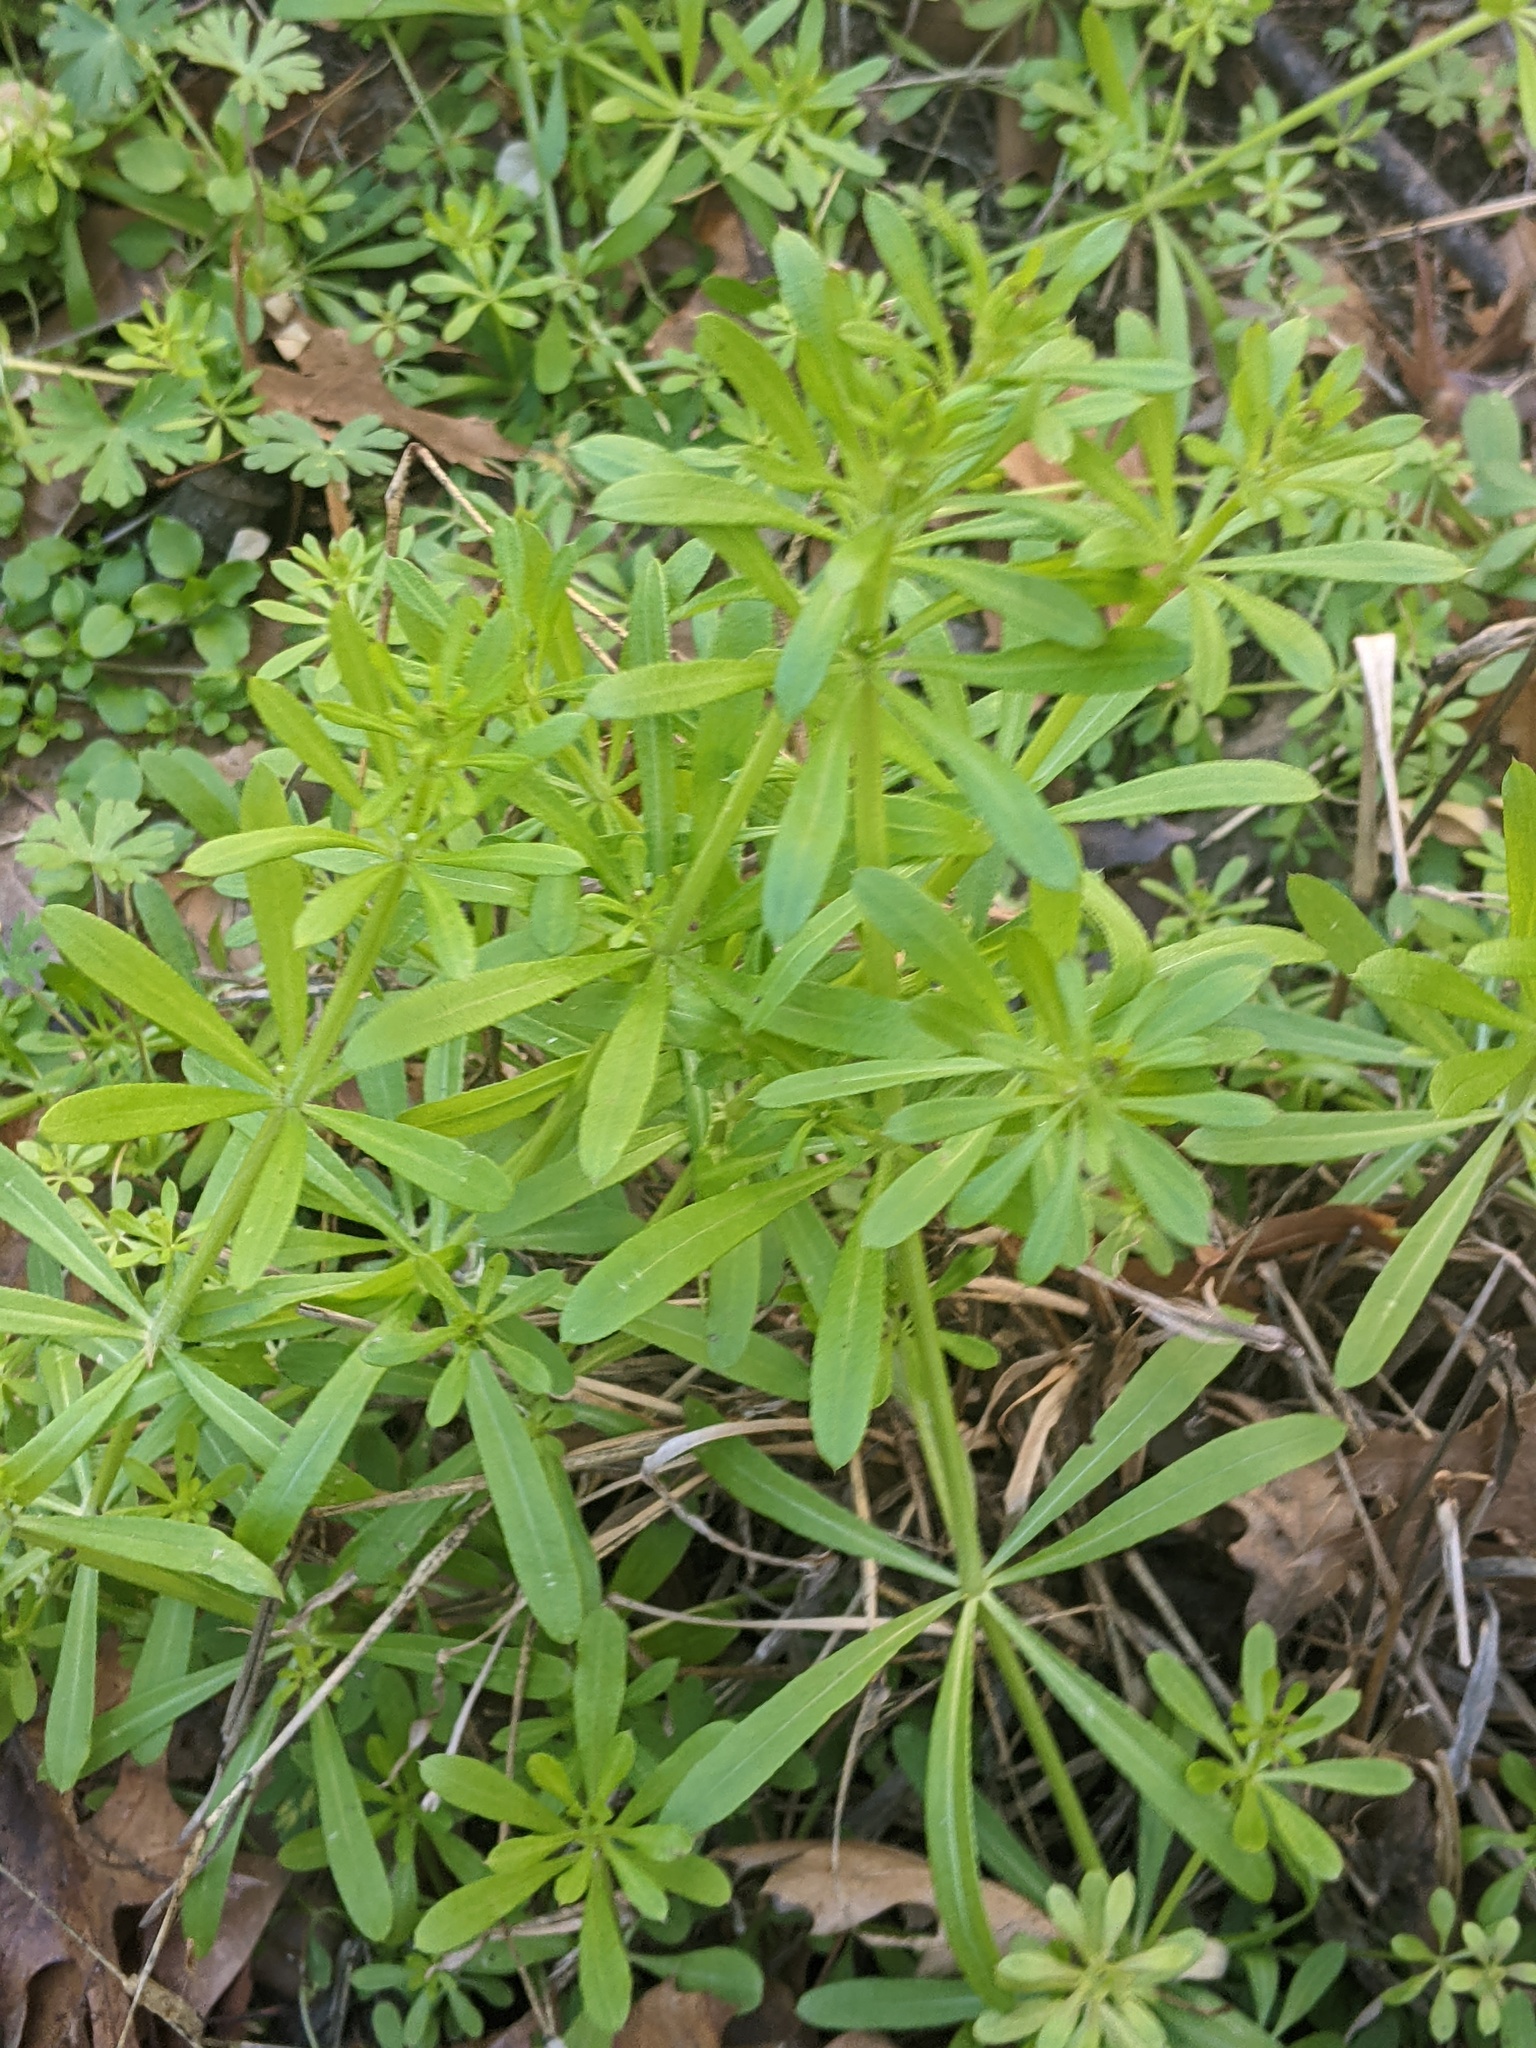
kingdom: Plantae
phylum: Tracheophyta
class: Magnoliopsida
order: Gentianales
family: Rubiaceae
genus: Galium
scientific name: Galium aparine
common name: Cleavers
